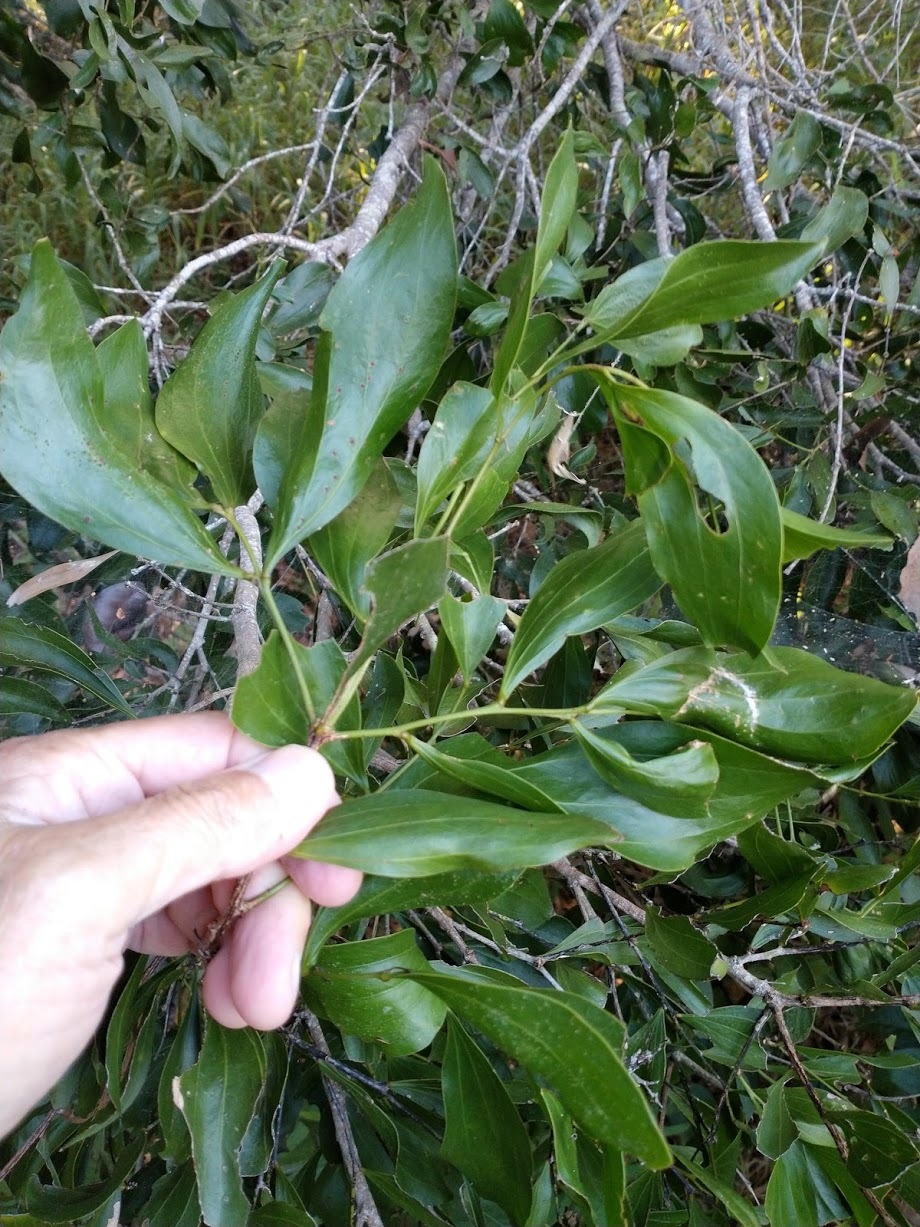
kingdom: Plantae
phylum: Tracheophyta
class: Magnoliopsida
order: Fabales
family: Fabaceae
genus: Acacia
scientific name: Acacia bakeri
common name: Scrub wattle
